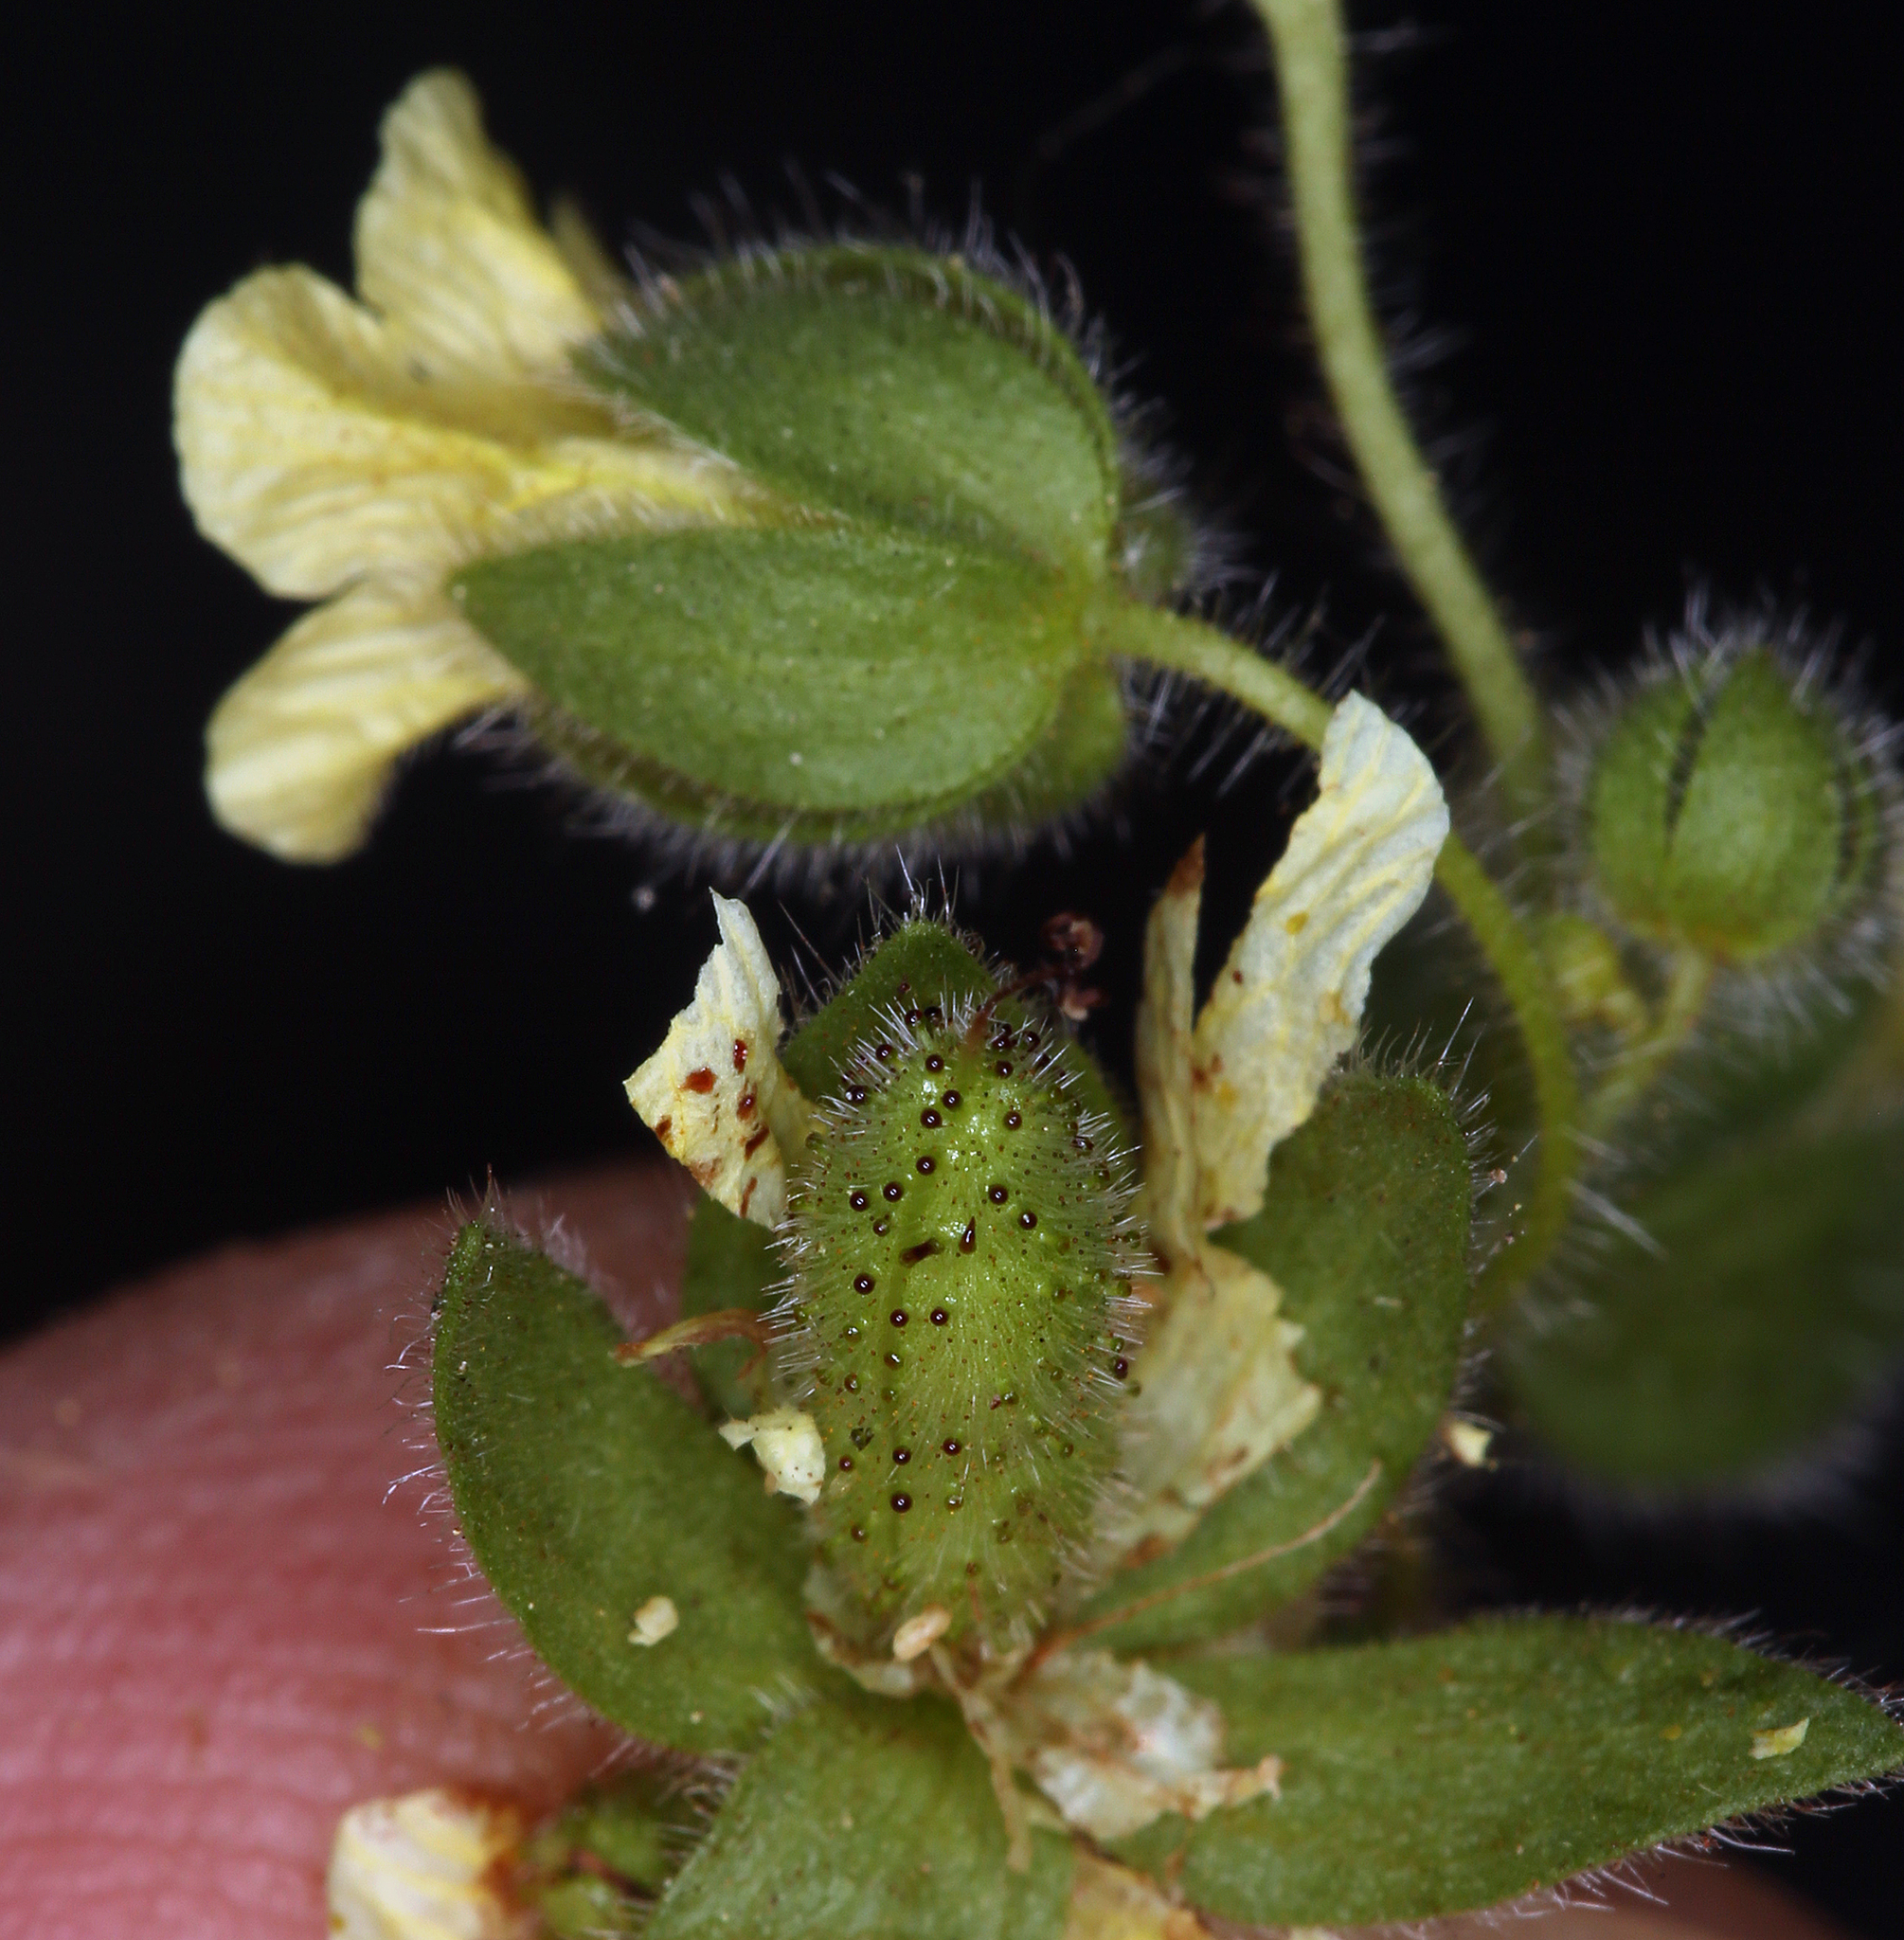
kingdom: Plantae
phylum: Tracheophyta
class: Magnoliopsida
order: Boraginales
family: Hydrophyllaceae
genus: Emmenanthe
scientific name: Emmenanthe penduliflora
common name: Whispering-bells
